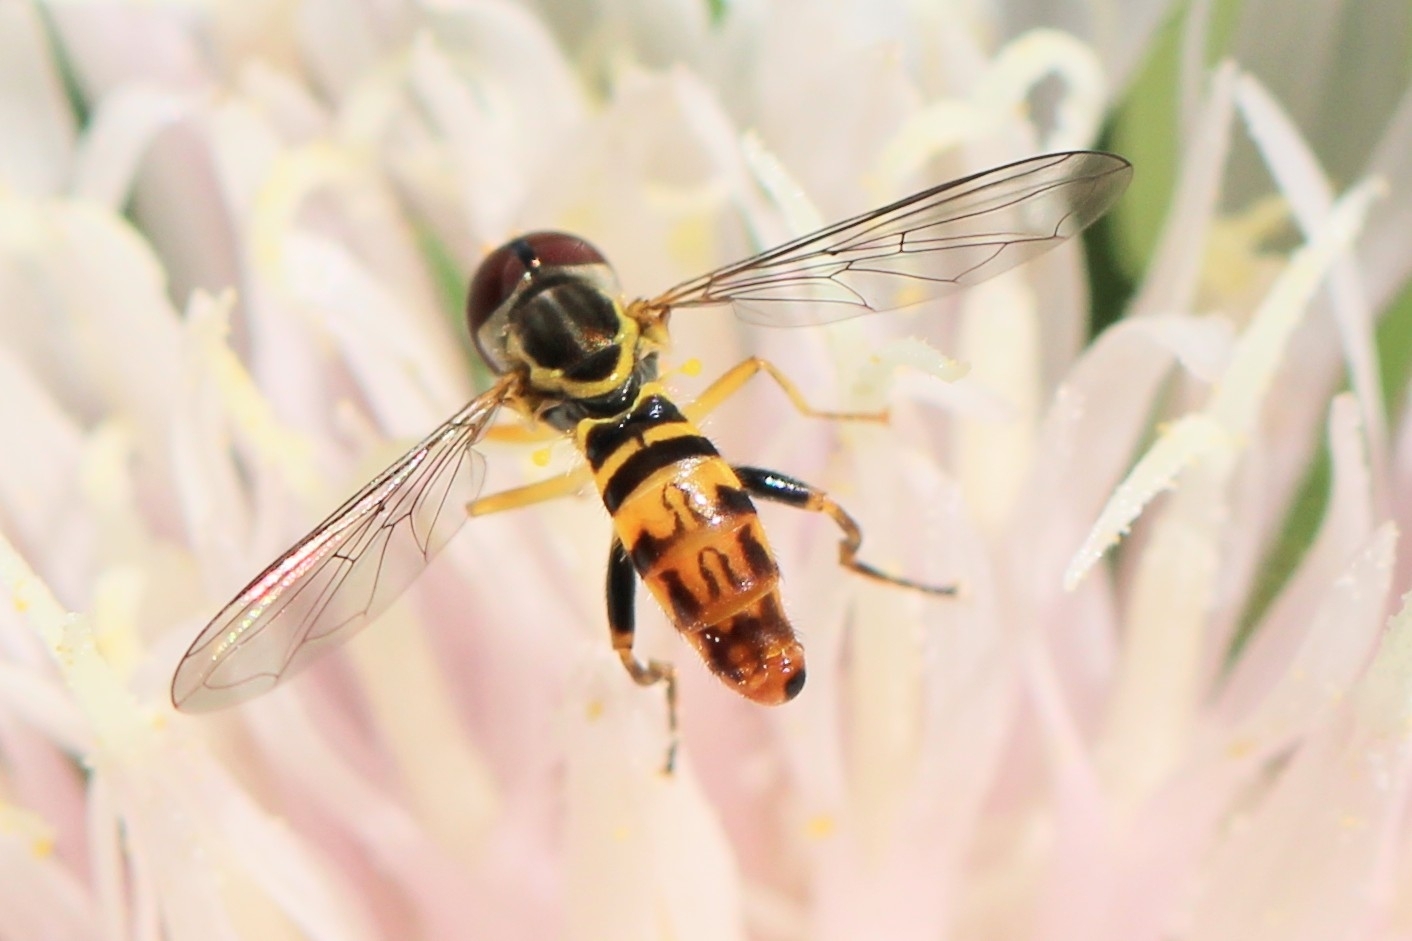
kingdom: Animalia
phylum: Arthropoda
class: Insecta
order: Diptera
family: Syrphidae
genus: Toxomerus
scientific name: Toxomerus geminatus
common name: Eastern calligrapher
